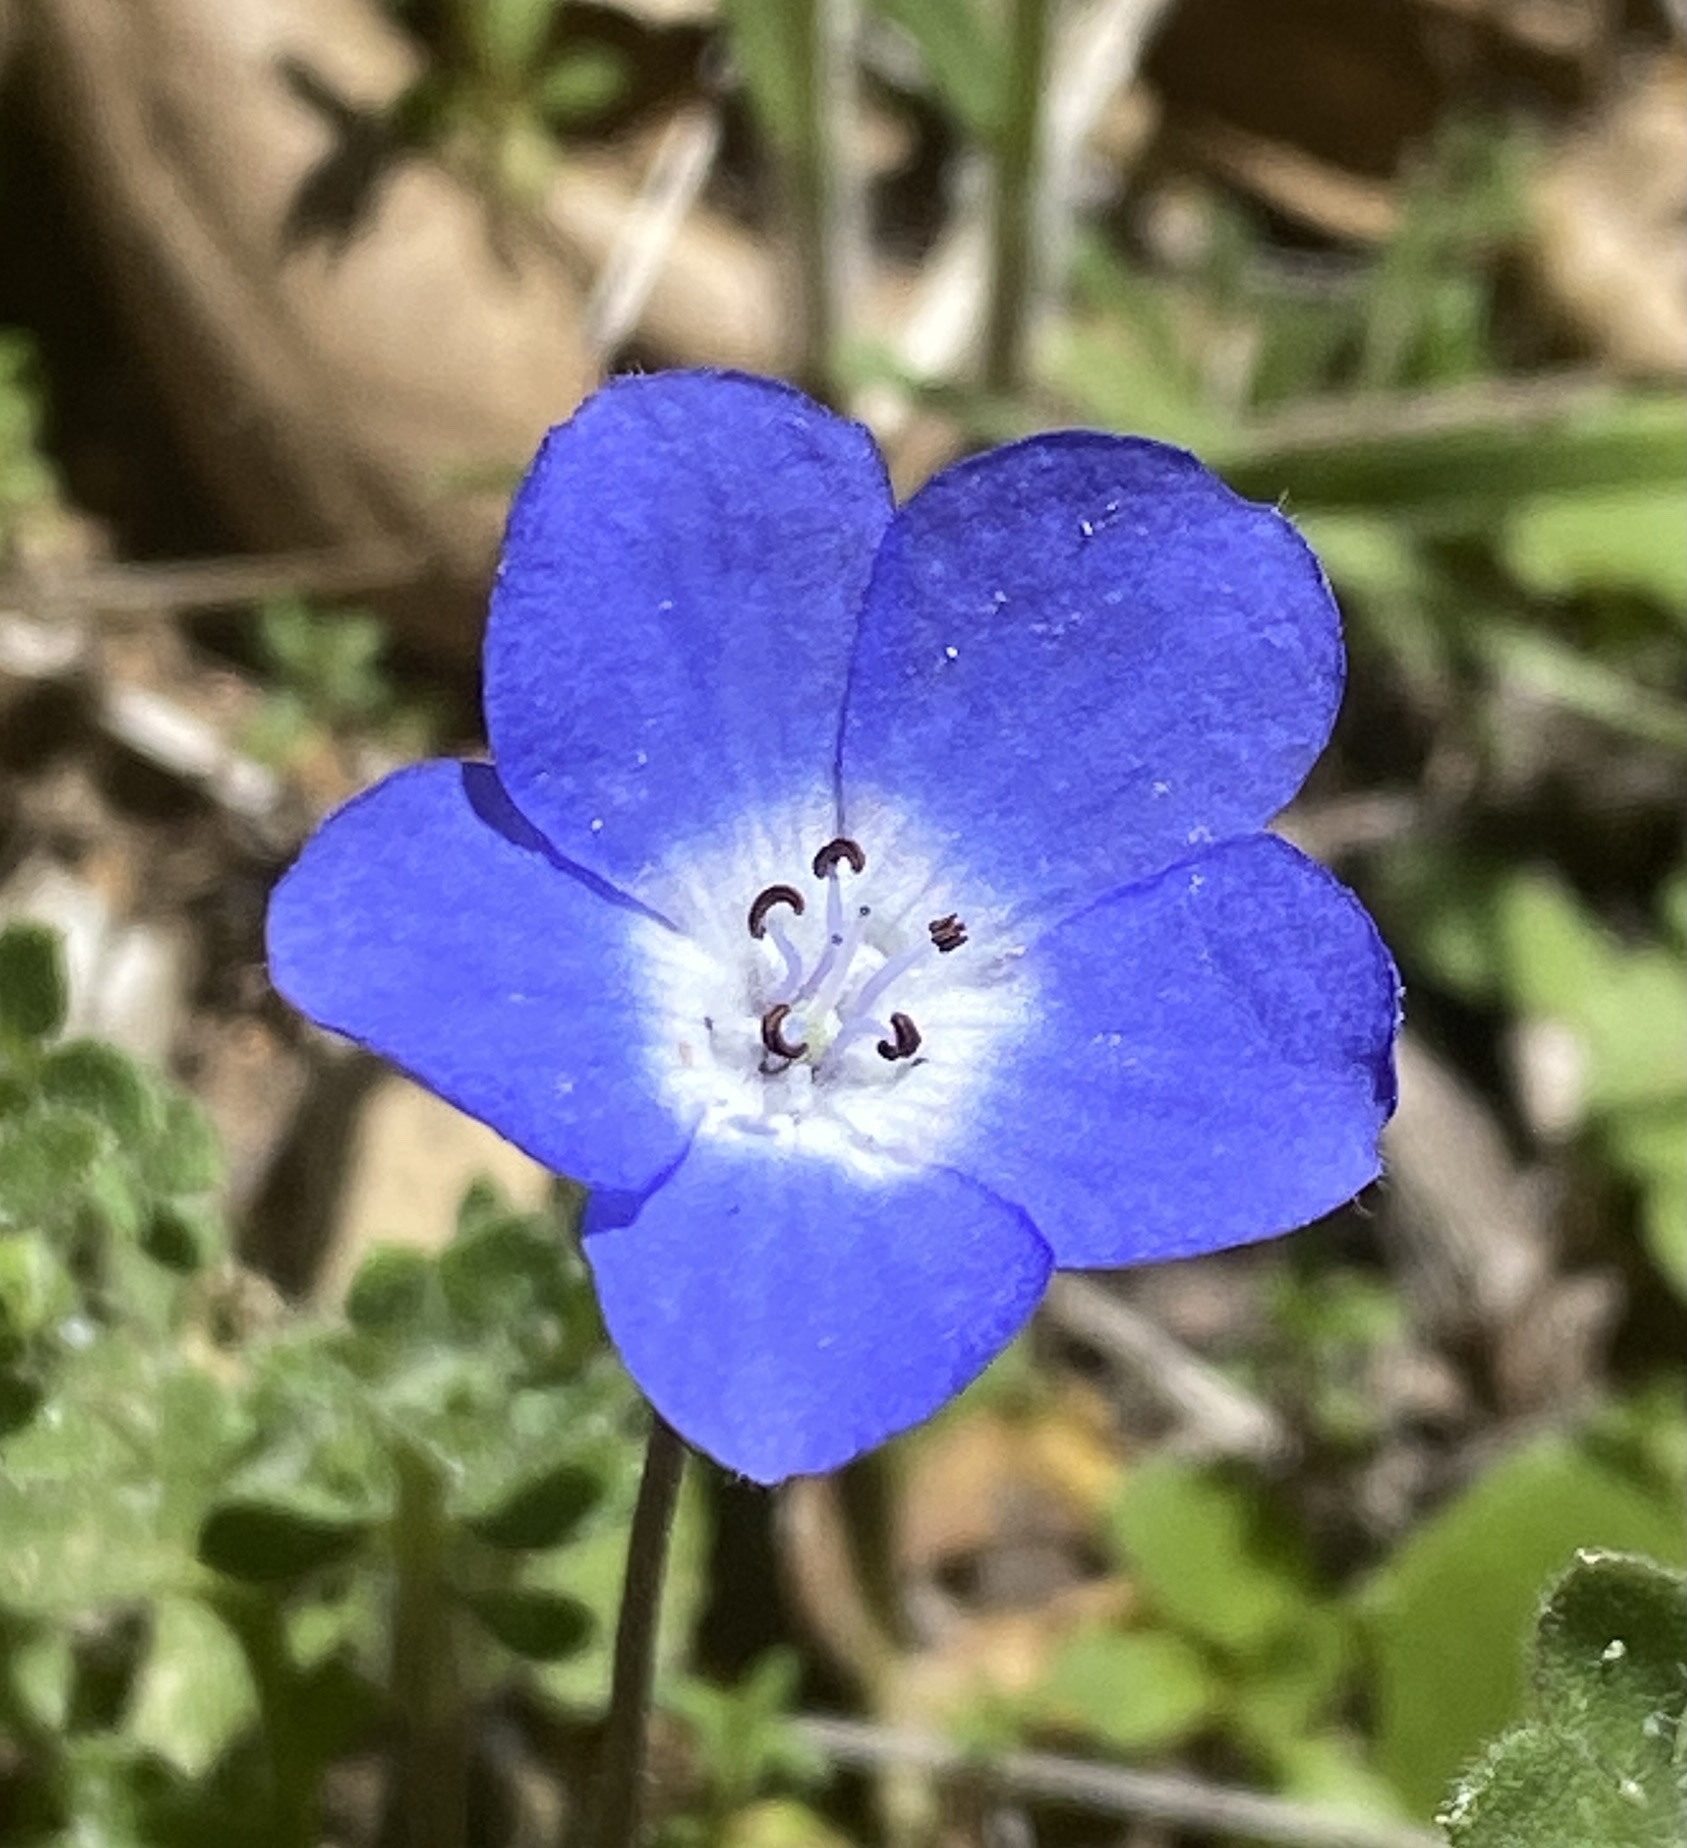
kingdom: Plantae
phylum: Tracheophyta
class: Magnoliopsida
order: Boraginales
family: Hydrophyllaceae
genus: Nemophila
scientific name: Nemophila menziesii
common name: Baby's-blue-eyes
